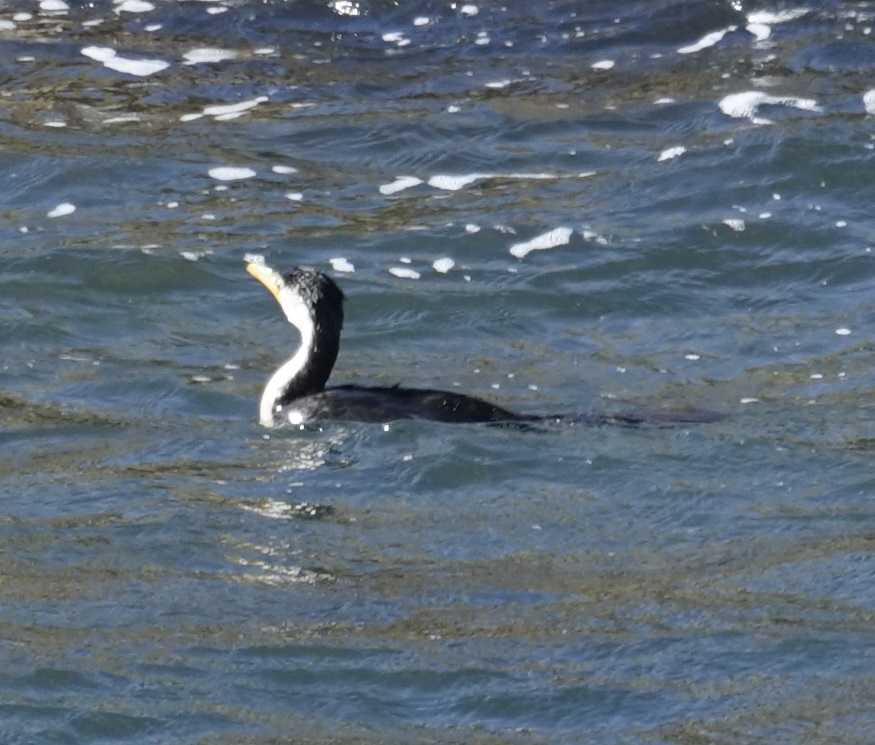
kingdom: Animalia
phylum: Chordata
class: Aves
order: Suliformes
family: Phalacrocoracidae
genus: Microcarbo
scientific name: Microcarbo melanoleucos
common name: Little pied cormorant
